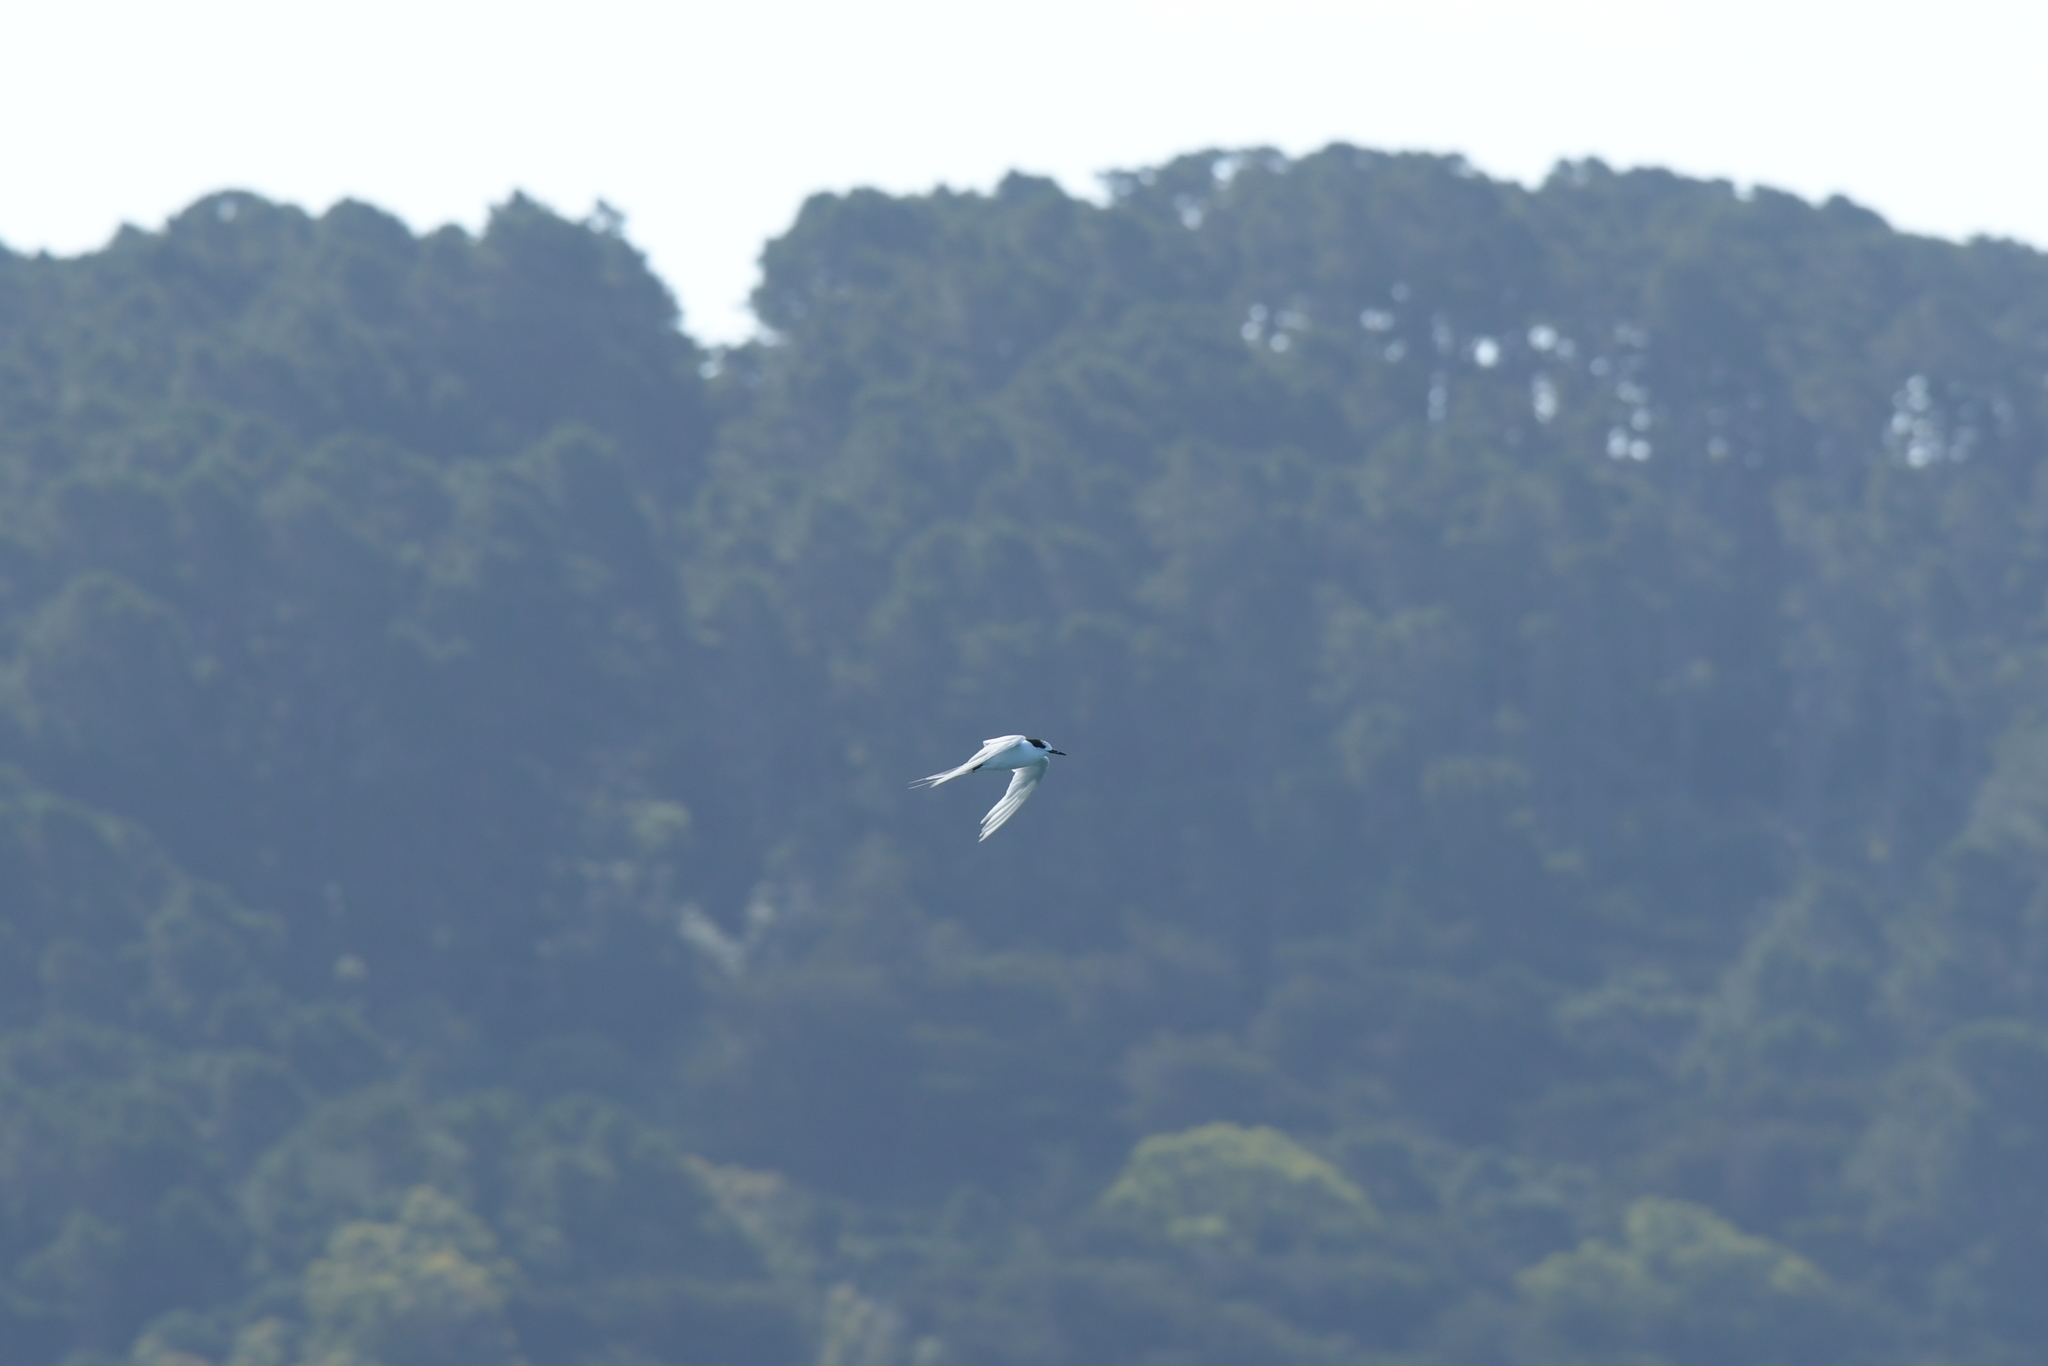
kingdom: Animalia
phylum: Chordata
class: Aves
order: Charadriiformes
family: Laridae
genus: Sterna
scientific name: Sterna striata
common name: White-fronted tern
